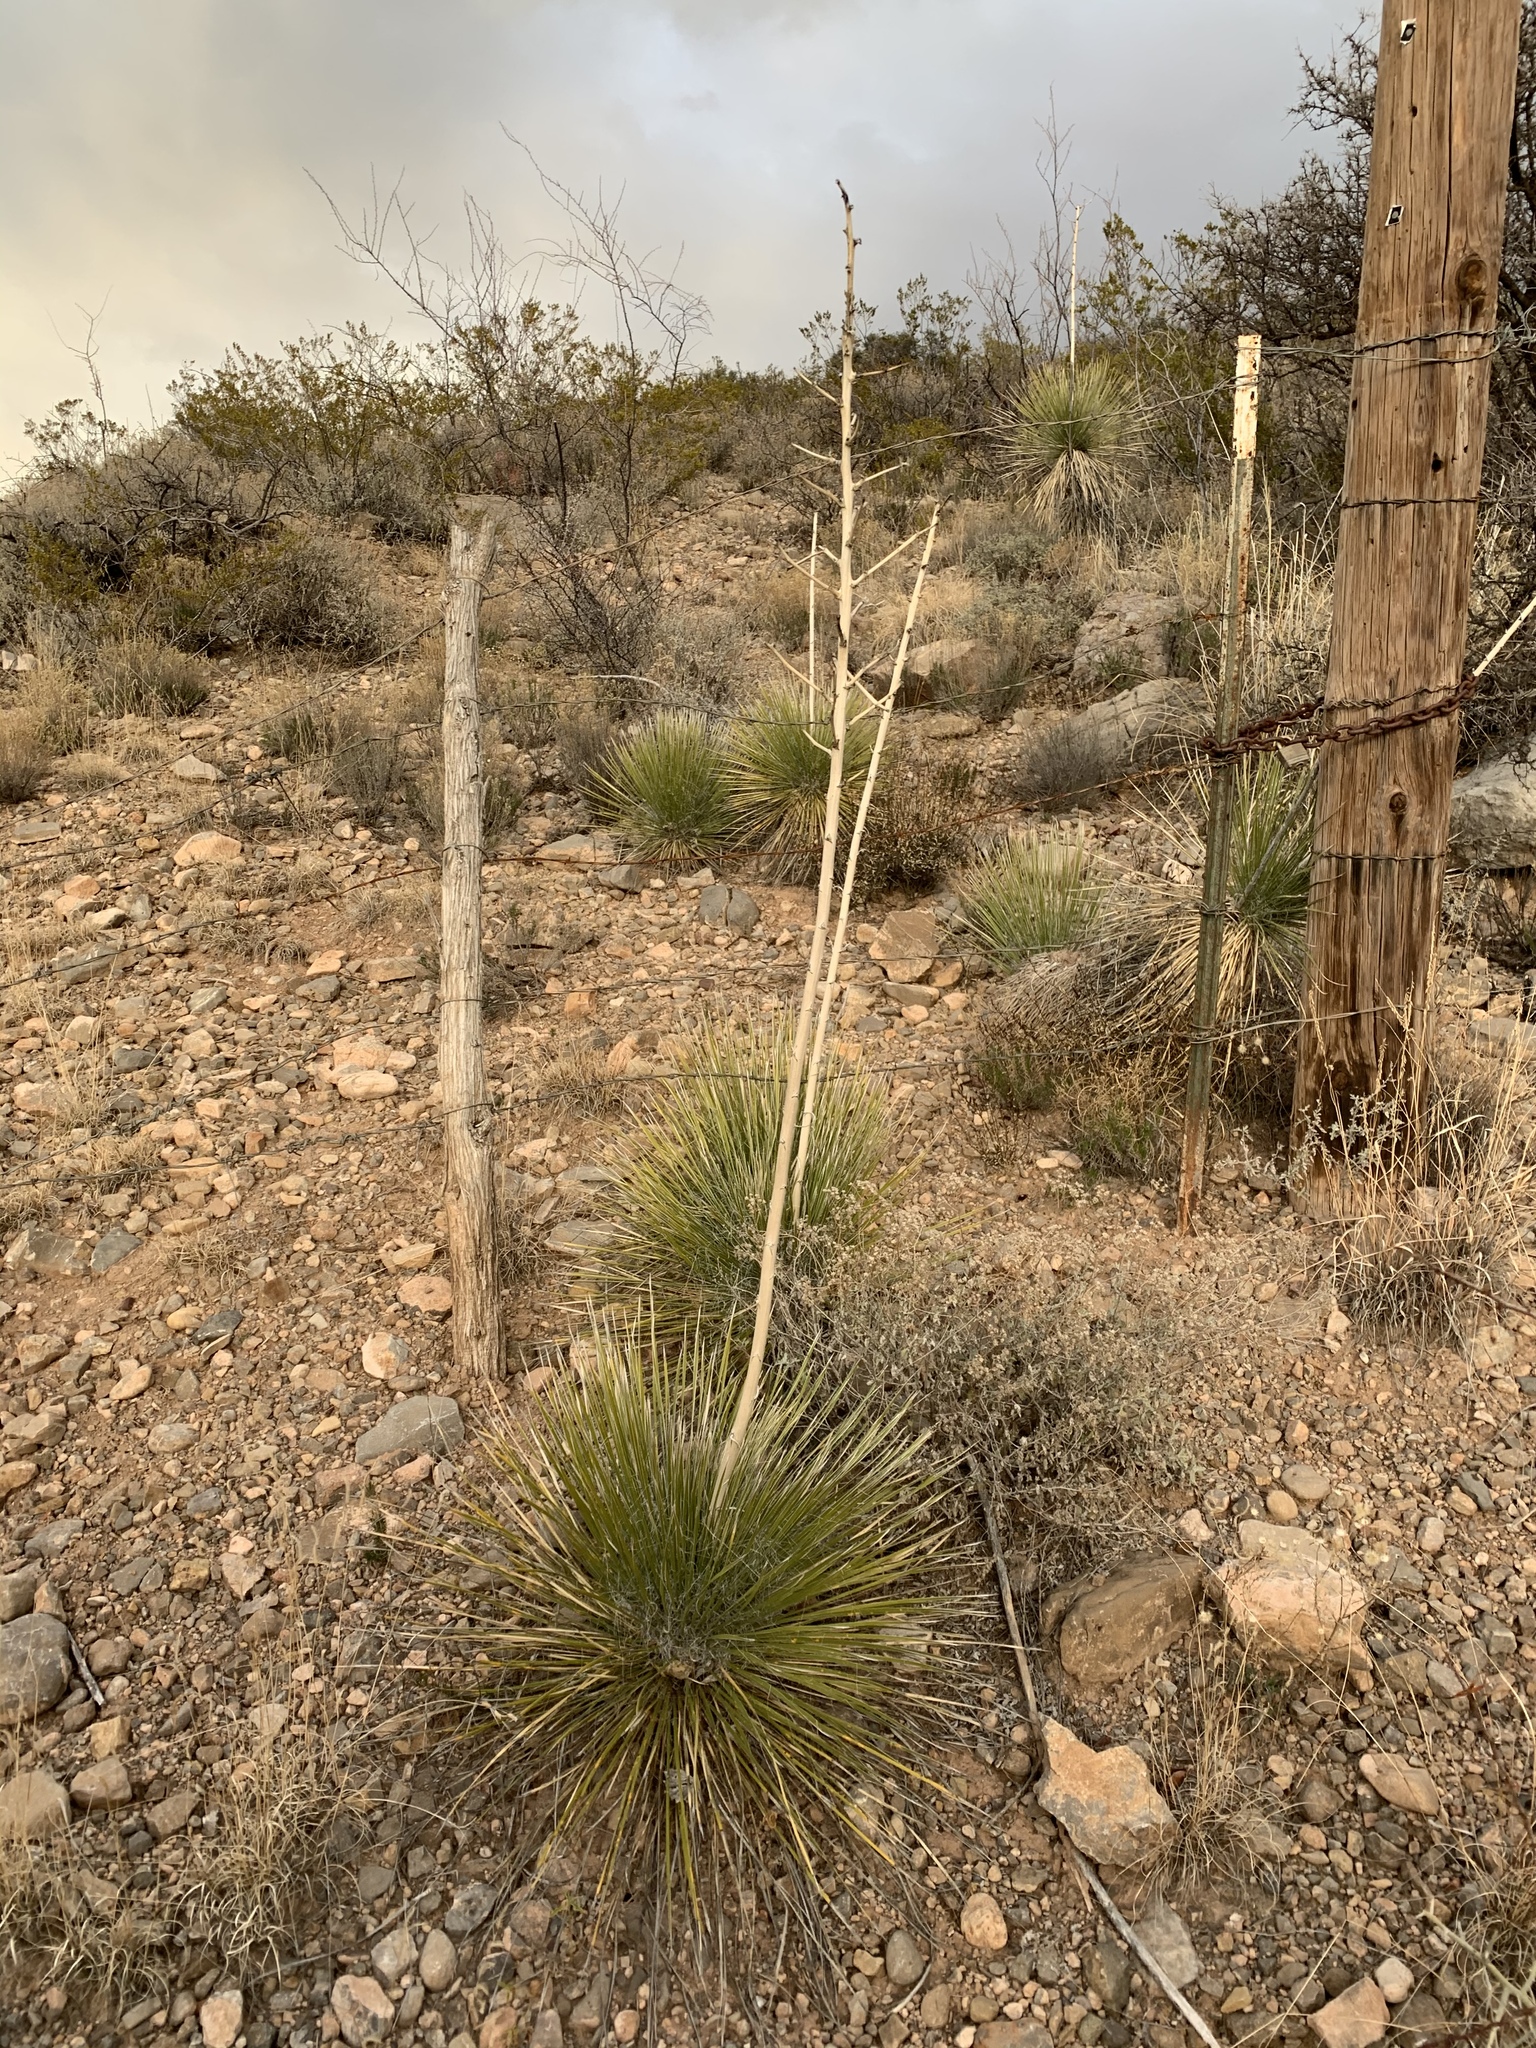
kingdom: Plantae
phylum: Tracheophyta
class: Liliopsida
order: Asparagales
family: Asparagaceae
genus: Yucca
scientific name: Yucca elata
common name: Palmella
